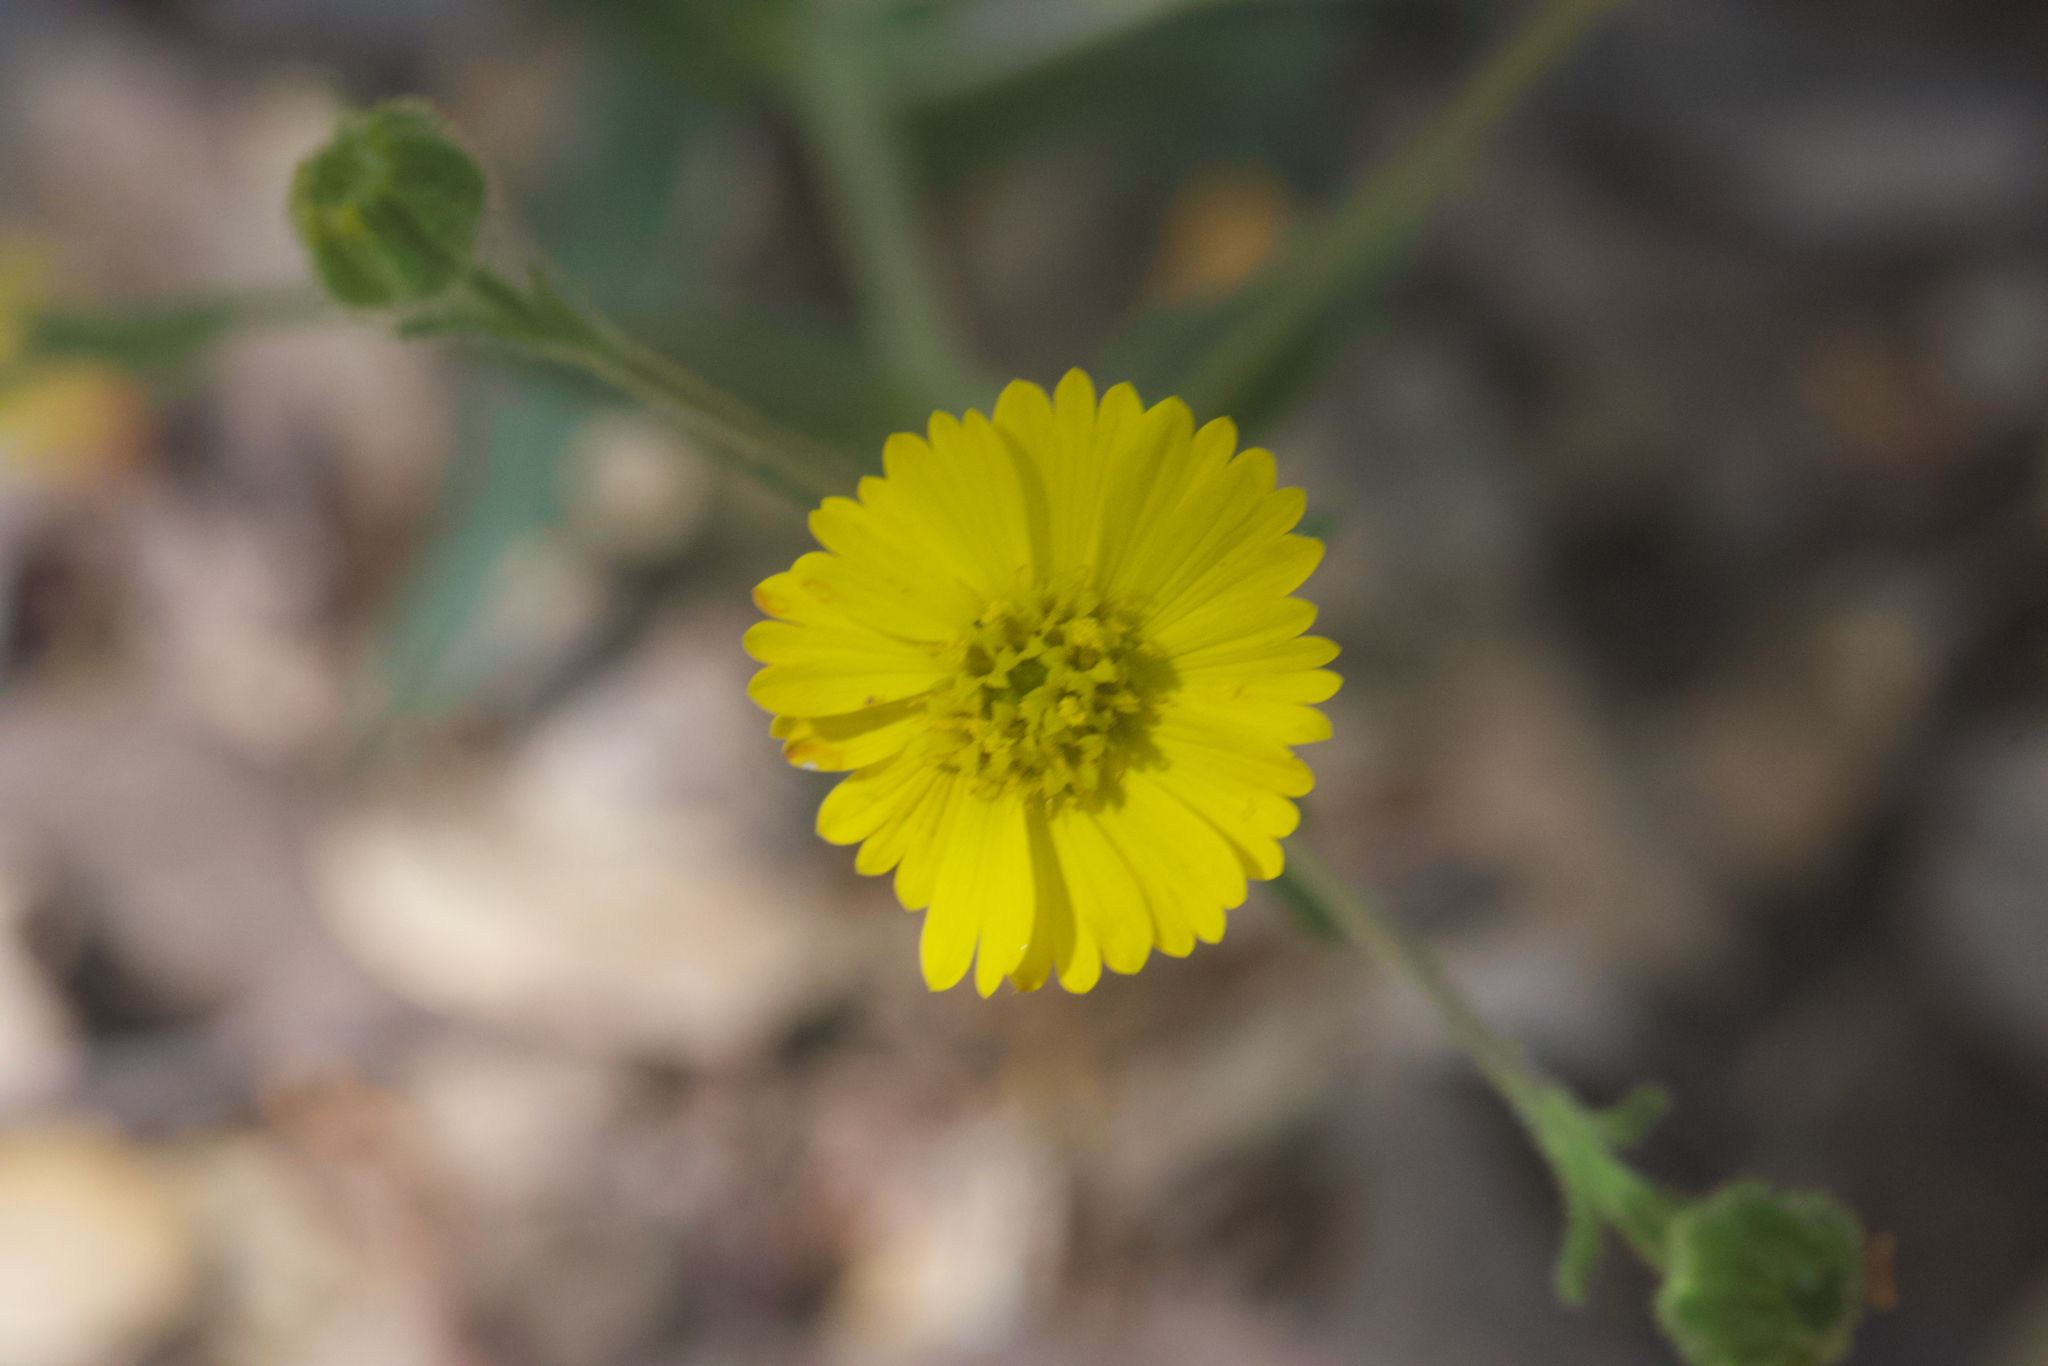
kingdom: Plantae
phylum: Tracheophyta
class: Magnoliopsida
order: Asterales
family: Asteraceae
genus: Anisocarpus
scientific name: Anisocarpus madioides
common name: Woodland madia
